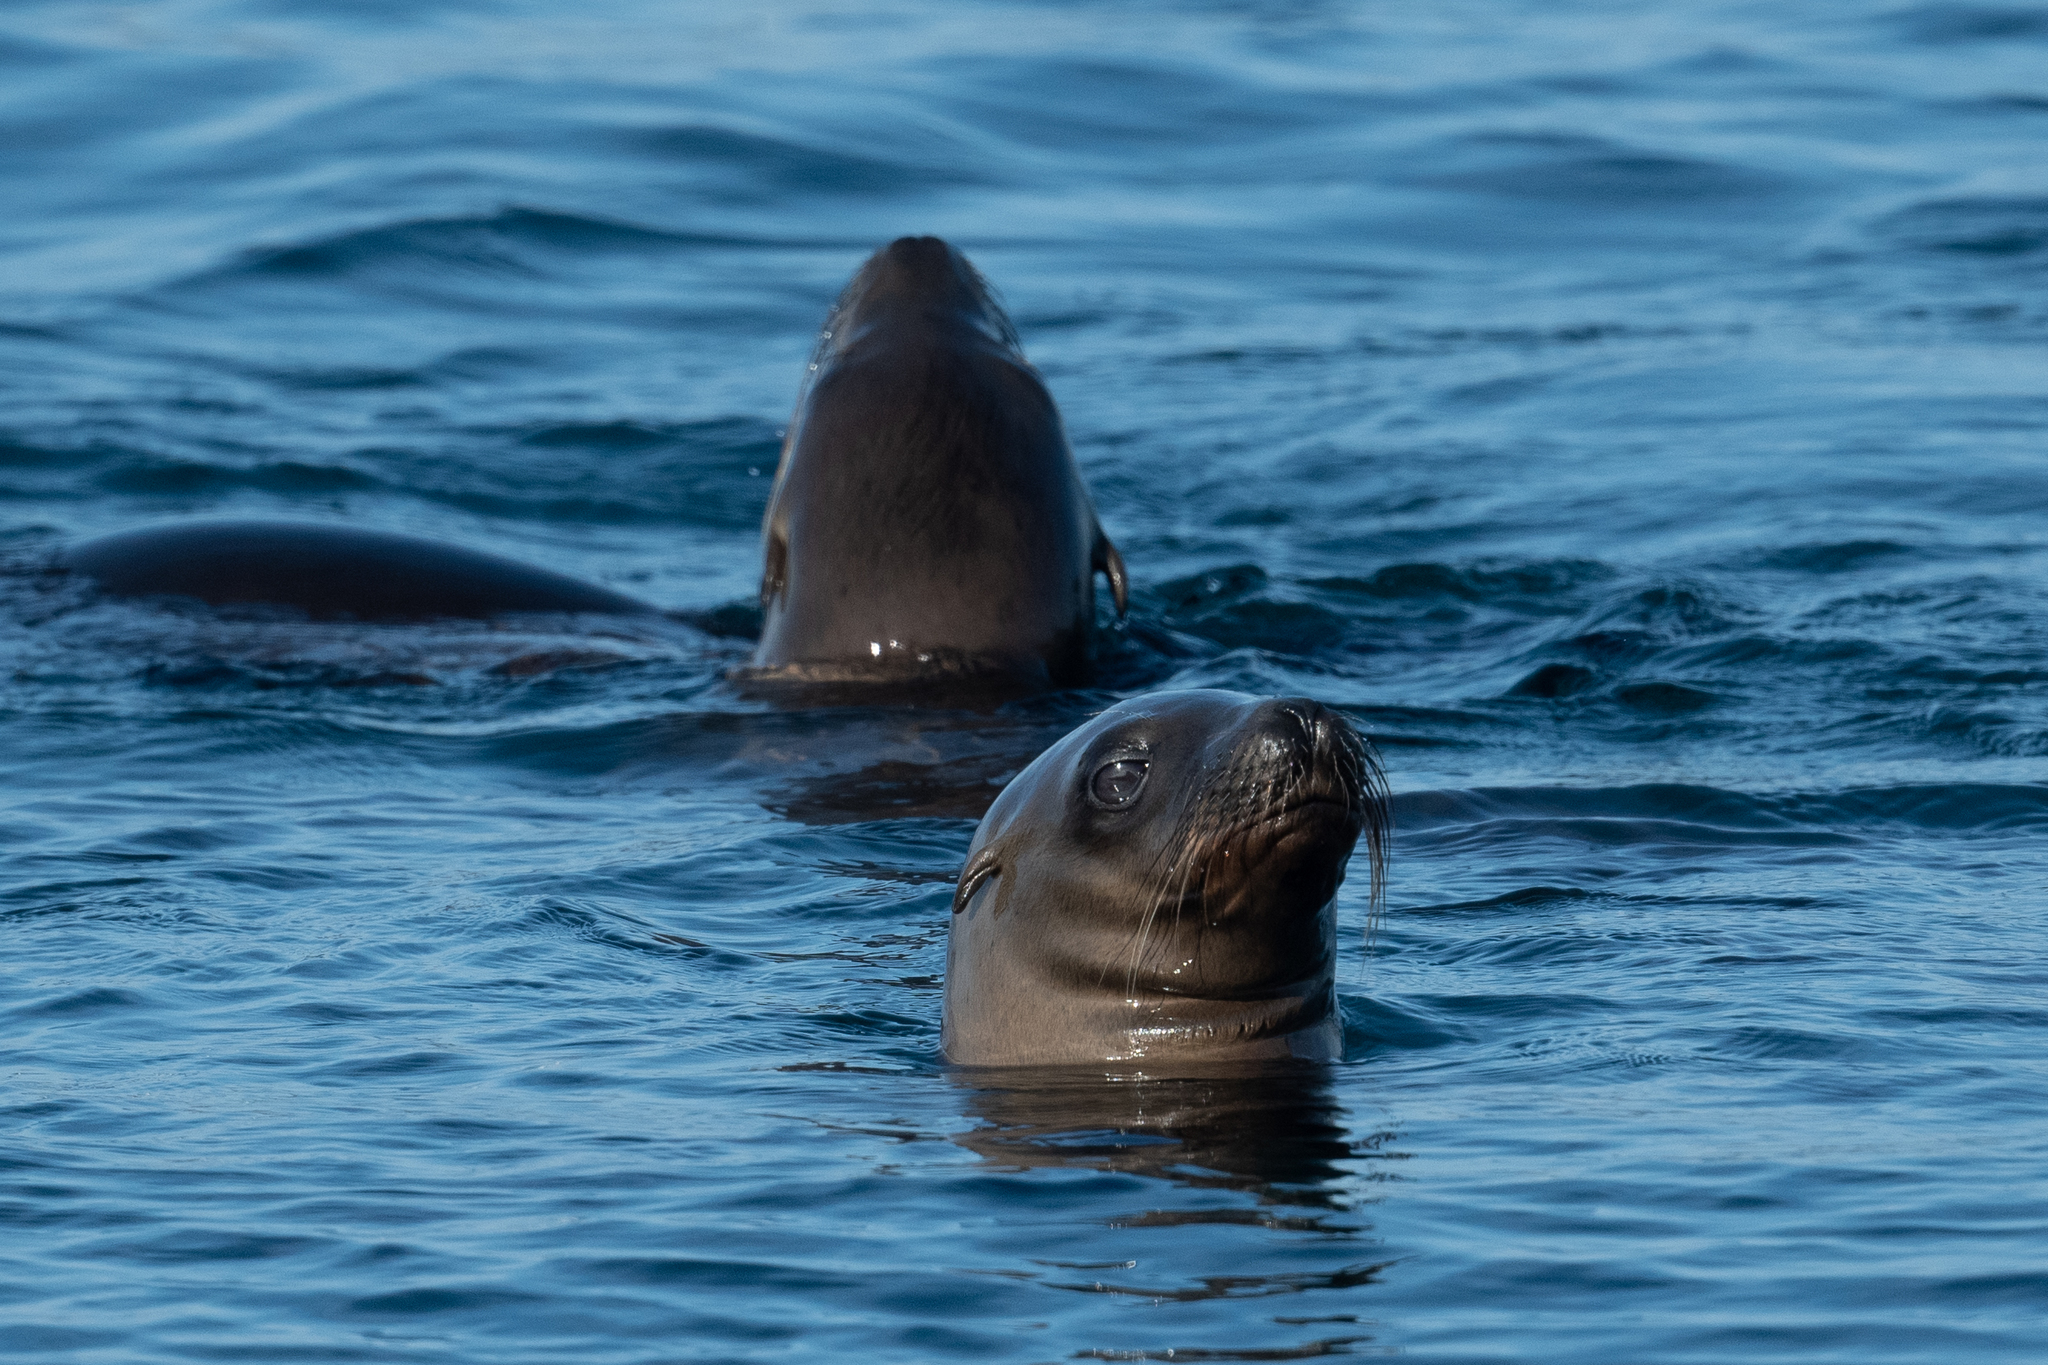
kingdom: Animalia
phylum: Chordata
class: Mammalia
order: Carnivora
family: Otariidae
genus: Zalophus
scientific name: Zalophus californianus
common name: California sea lion
